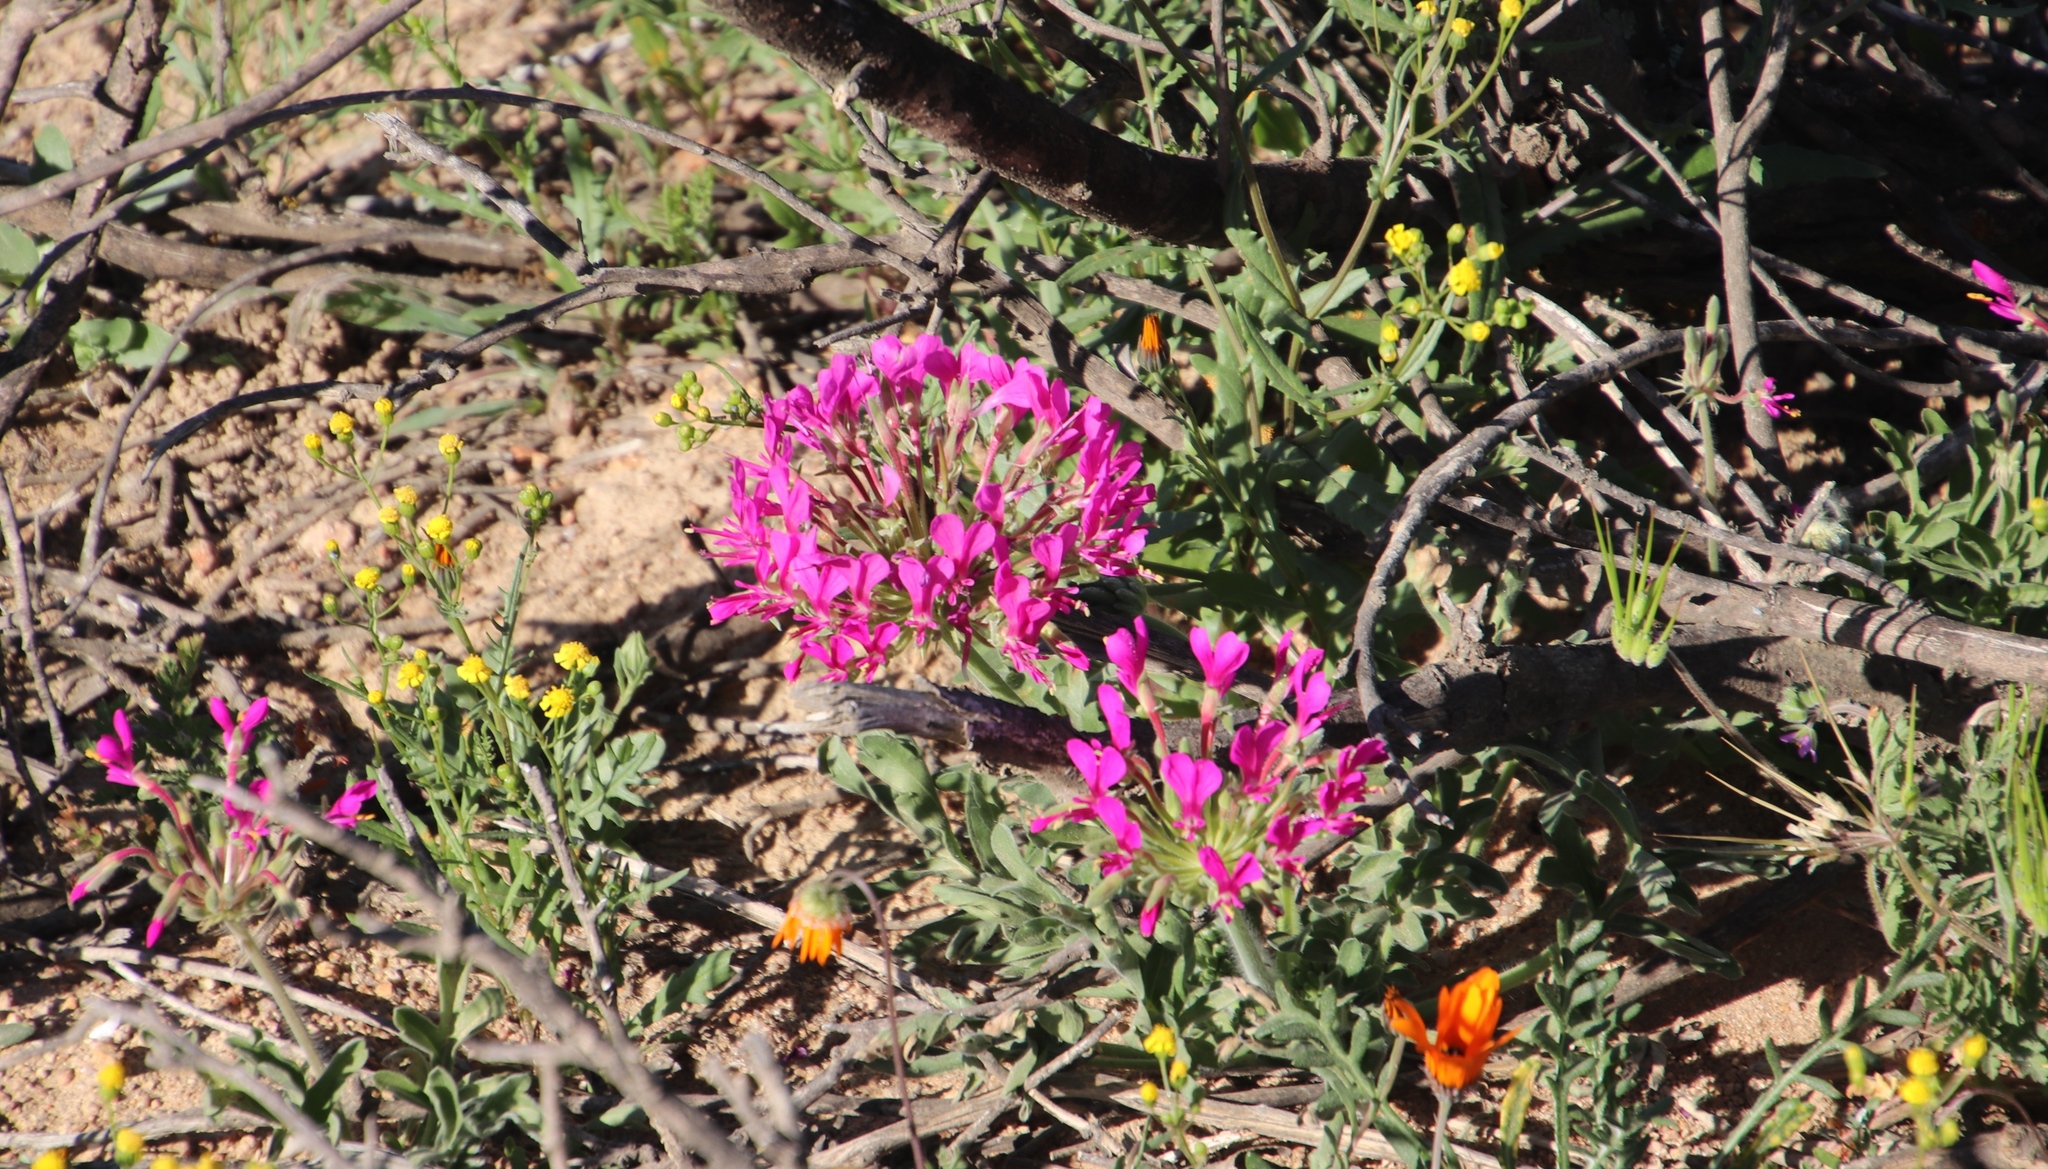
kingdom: Plantae
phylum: Tracheophyta
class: Magnoliopsida
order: Geraniales
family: Geraniaceae
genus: Pelargonium
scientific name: Pelargonium incrassatum
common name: Namaqualand beauty
